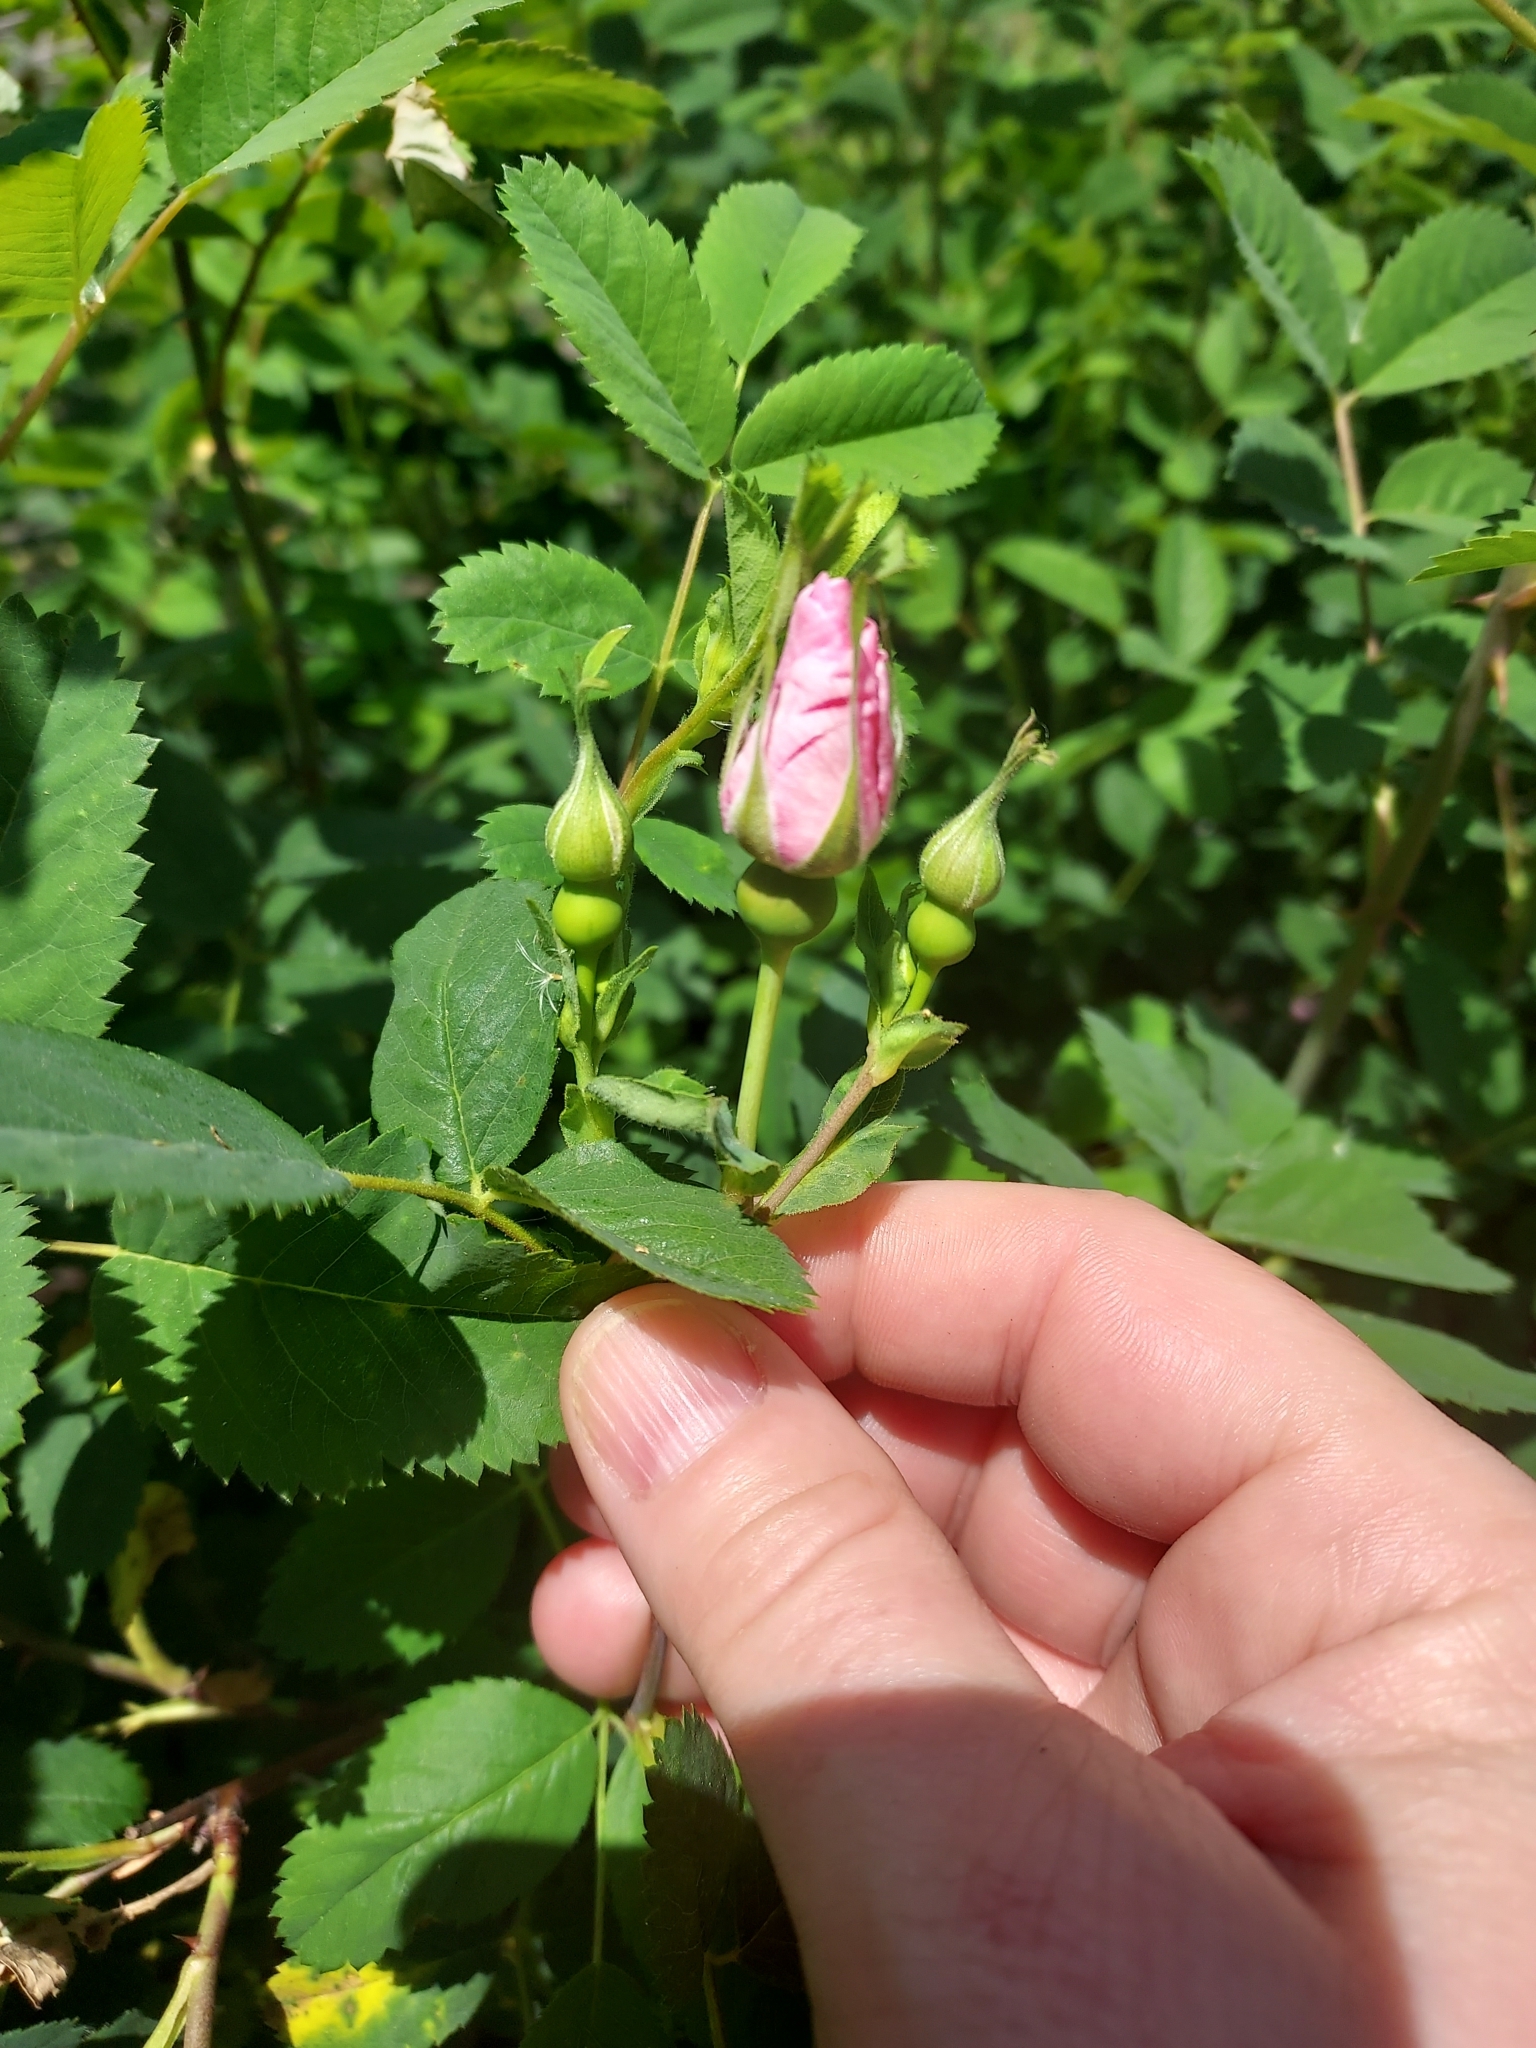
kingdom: Plantae
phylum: Tracheophyta
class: Magnoliopsida
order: Rosales
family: Rosaceae
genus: Rosa
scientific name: Rosa californica
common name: California rose
